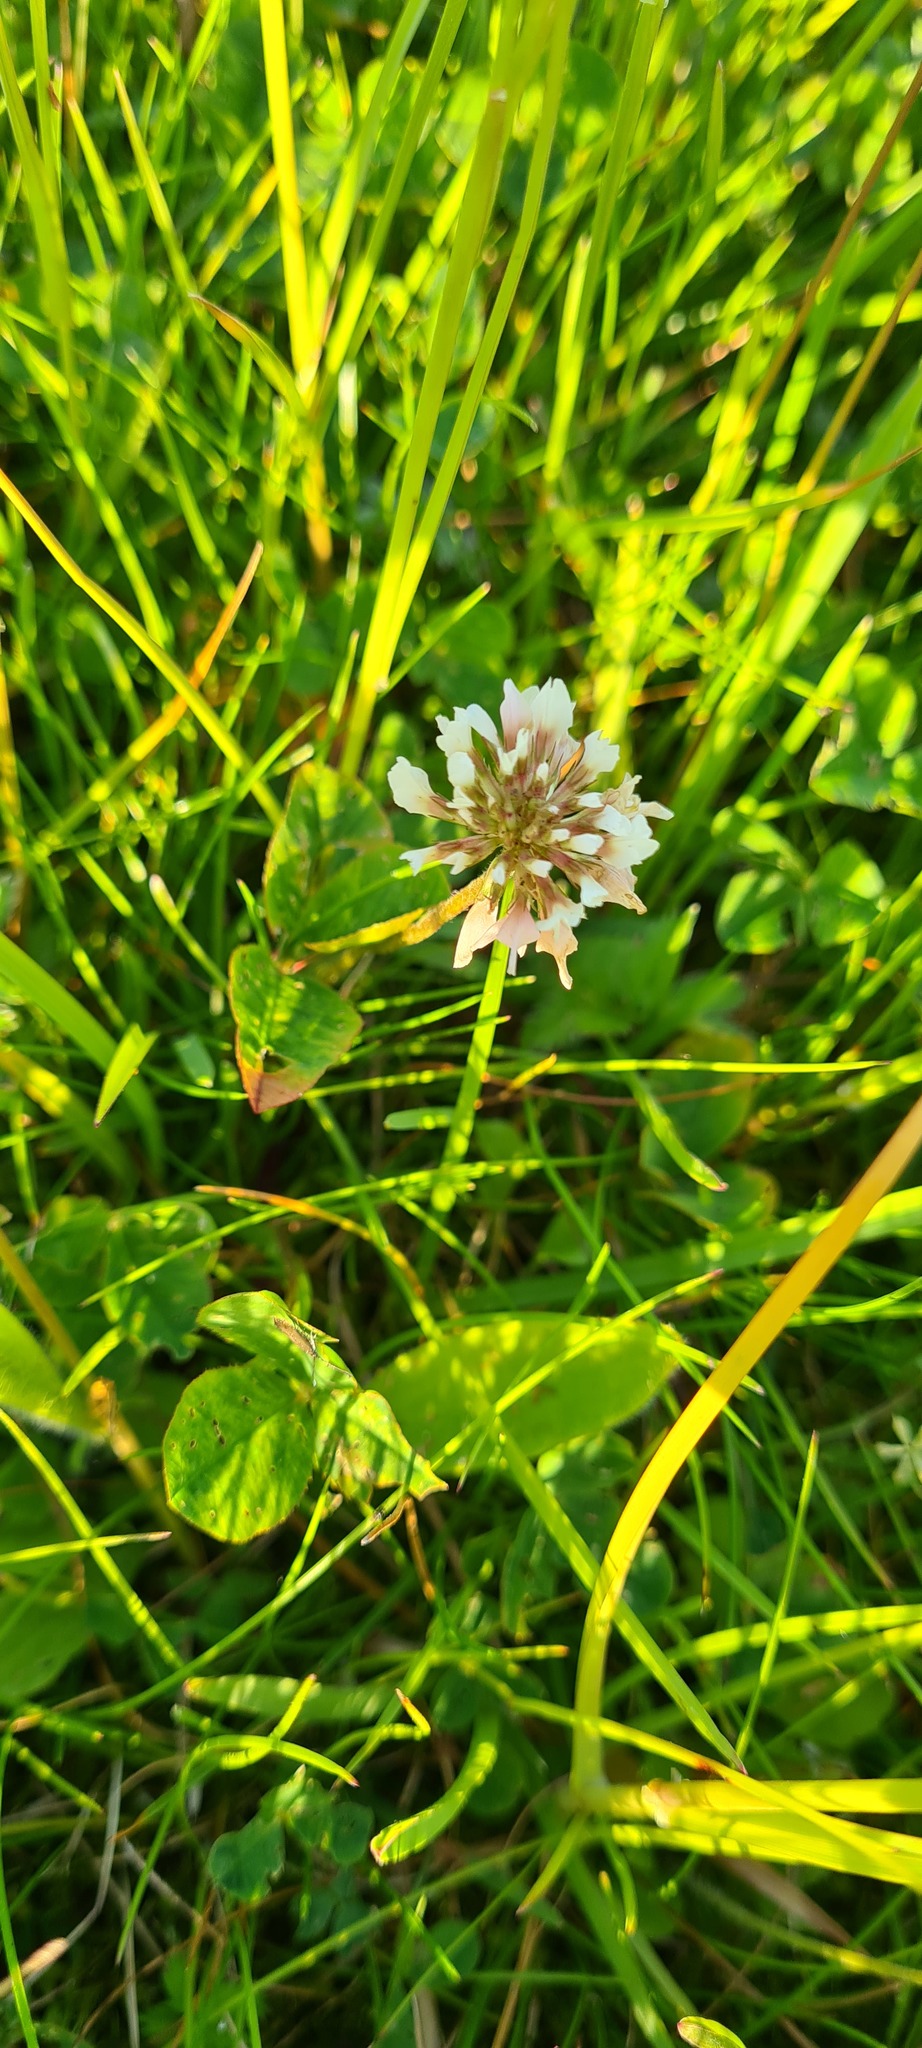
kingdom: Plantae
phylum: Tracheophyta
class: Magnoliopsida
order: Fabales
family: Fabaceae
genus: Trifolium
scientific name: Trifolium repens
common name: White clover
